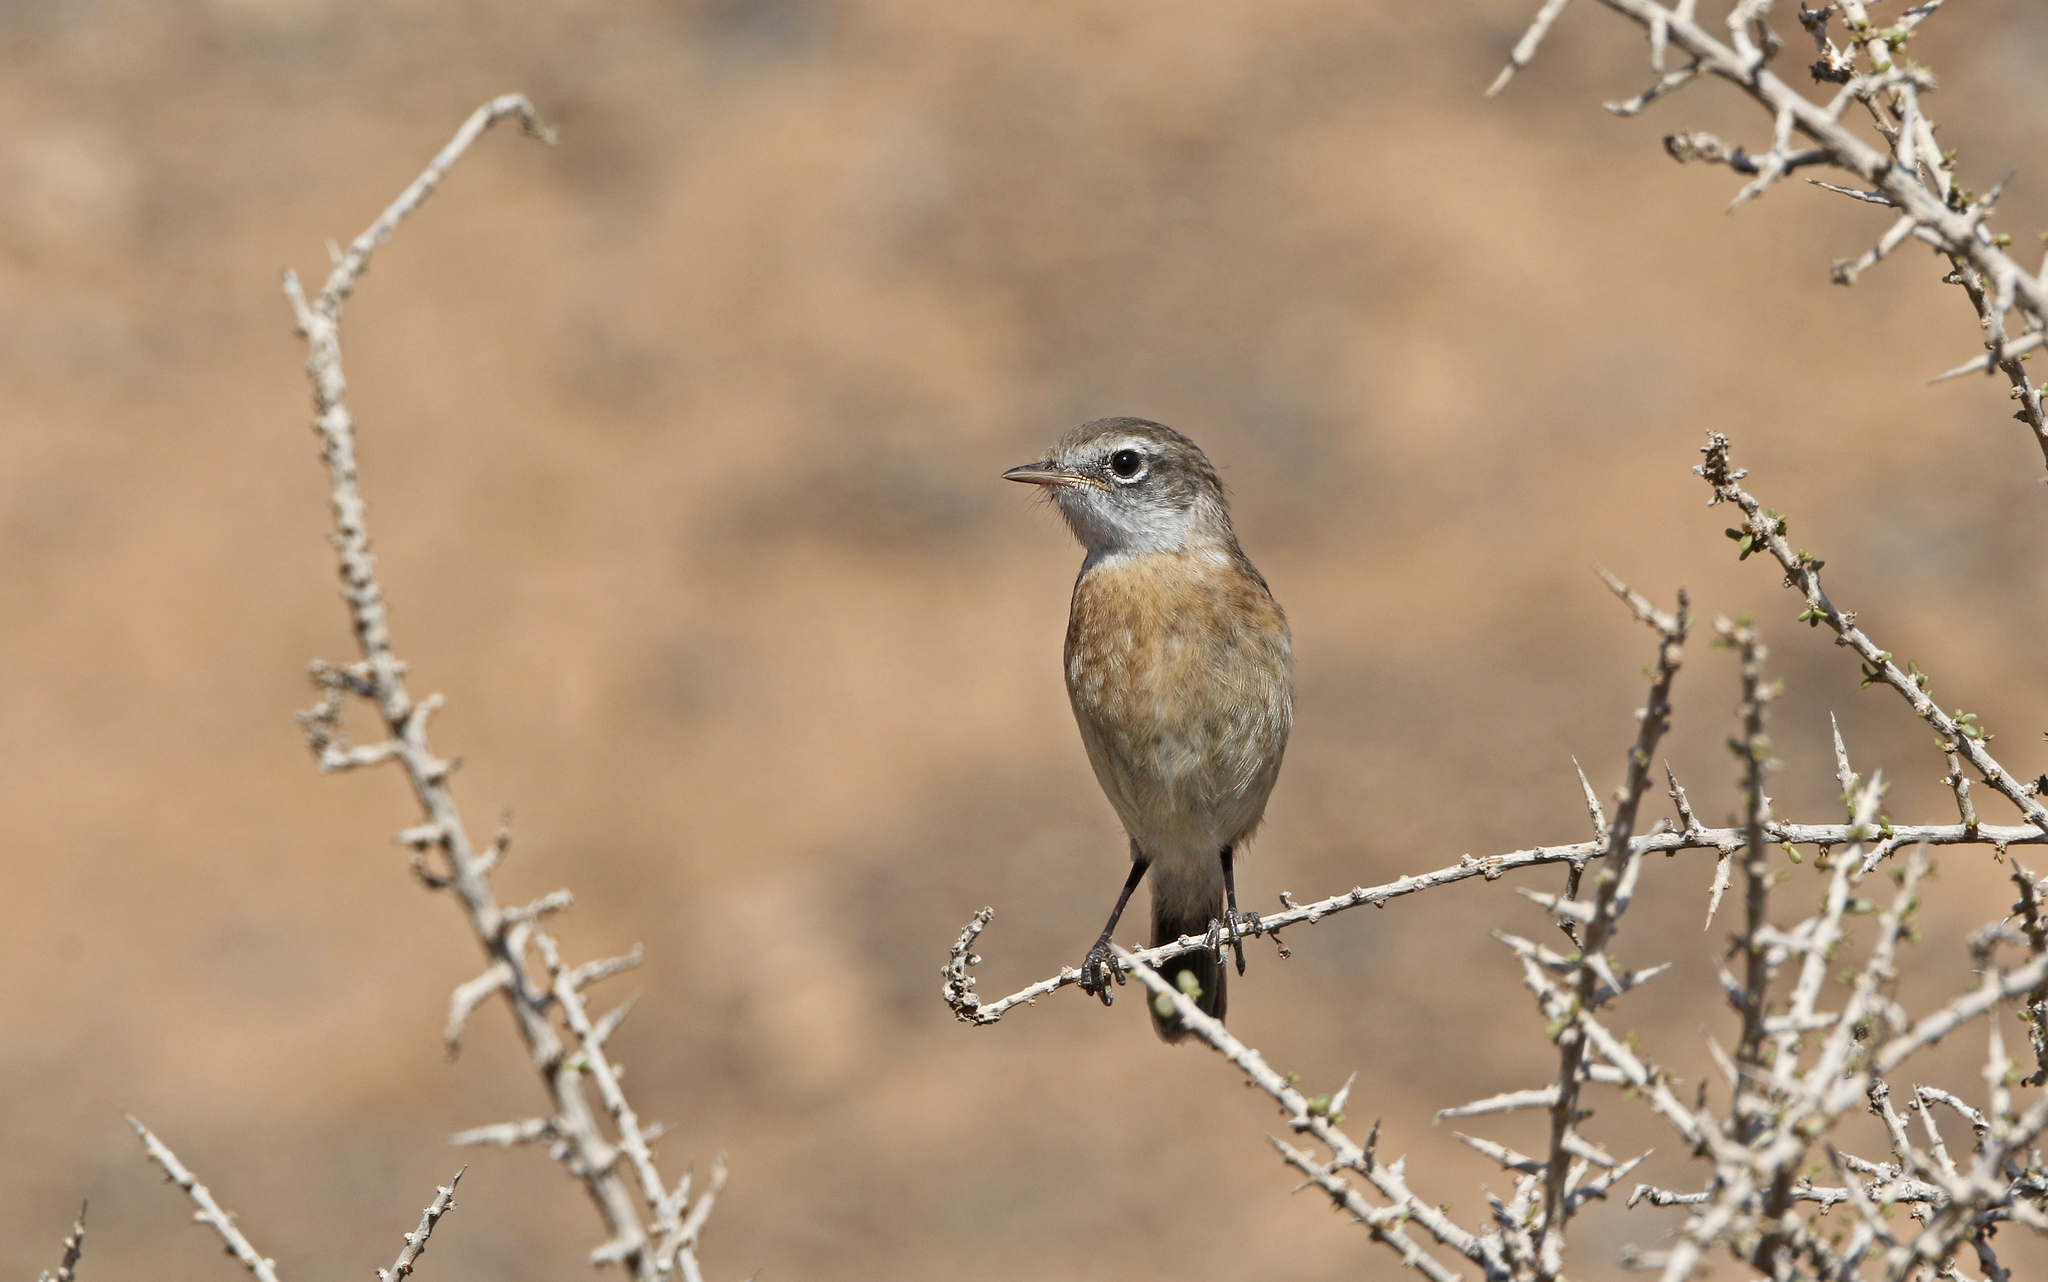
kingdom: Animalia
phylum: Chordata
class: Aves
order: Passeriformes
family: Muscicapidae
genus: Saxicola
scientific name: Saxicola dacotiae
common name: Canary islands stonechat
